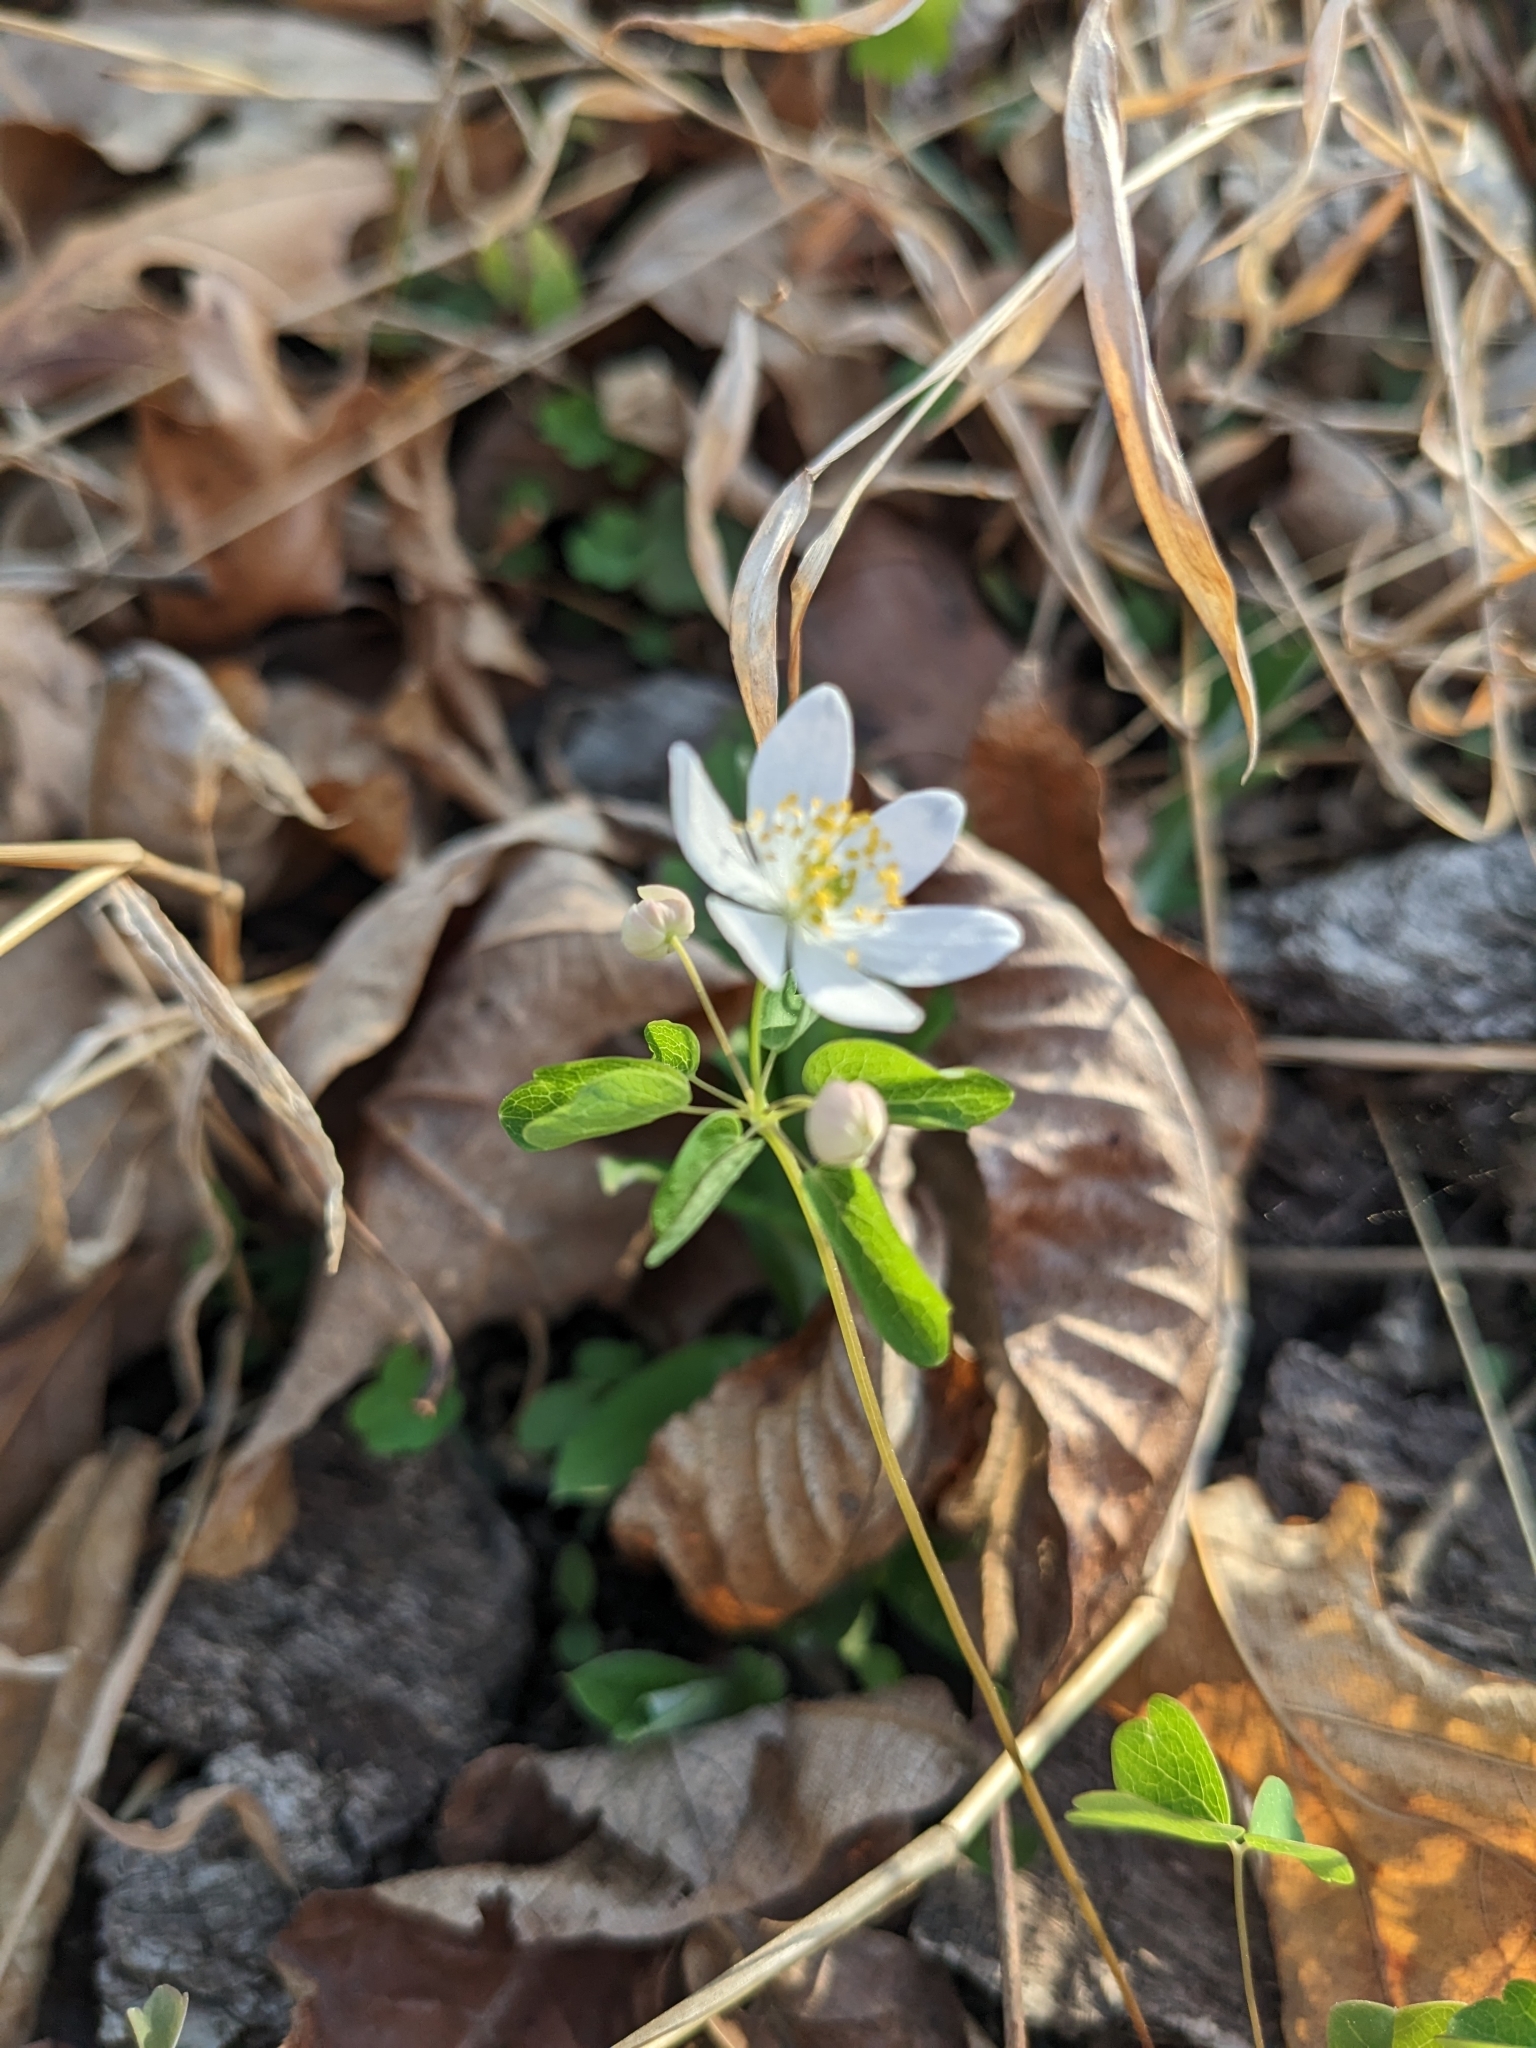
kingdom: Plantae
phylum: Tracheophyta
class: Magnoliopsida
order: Ranunculales
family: Ranunculaceae
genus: Thalictrum
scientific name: Thalictrum thalictroides
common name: Rue-anemone
